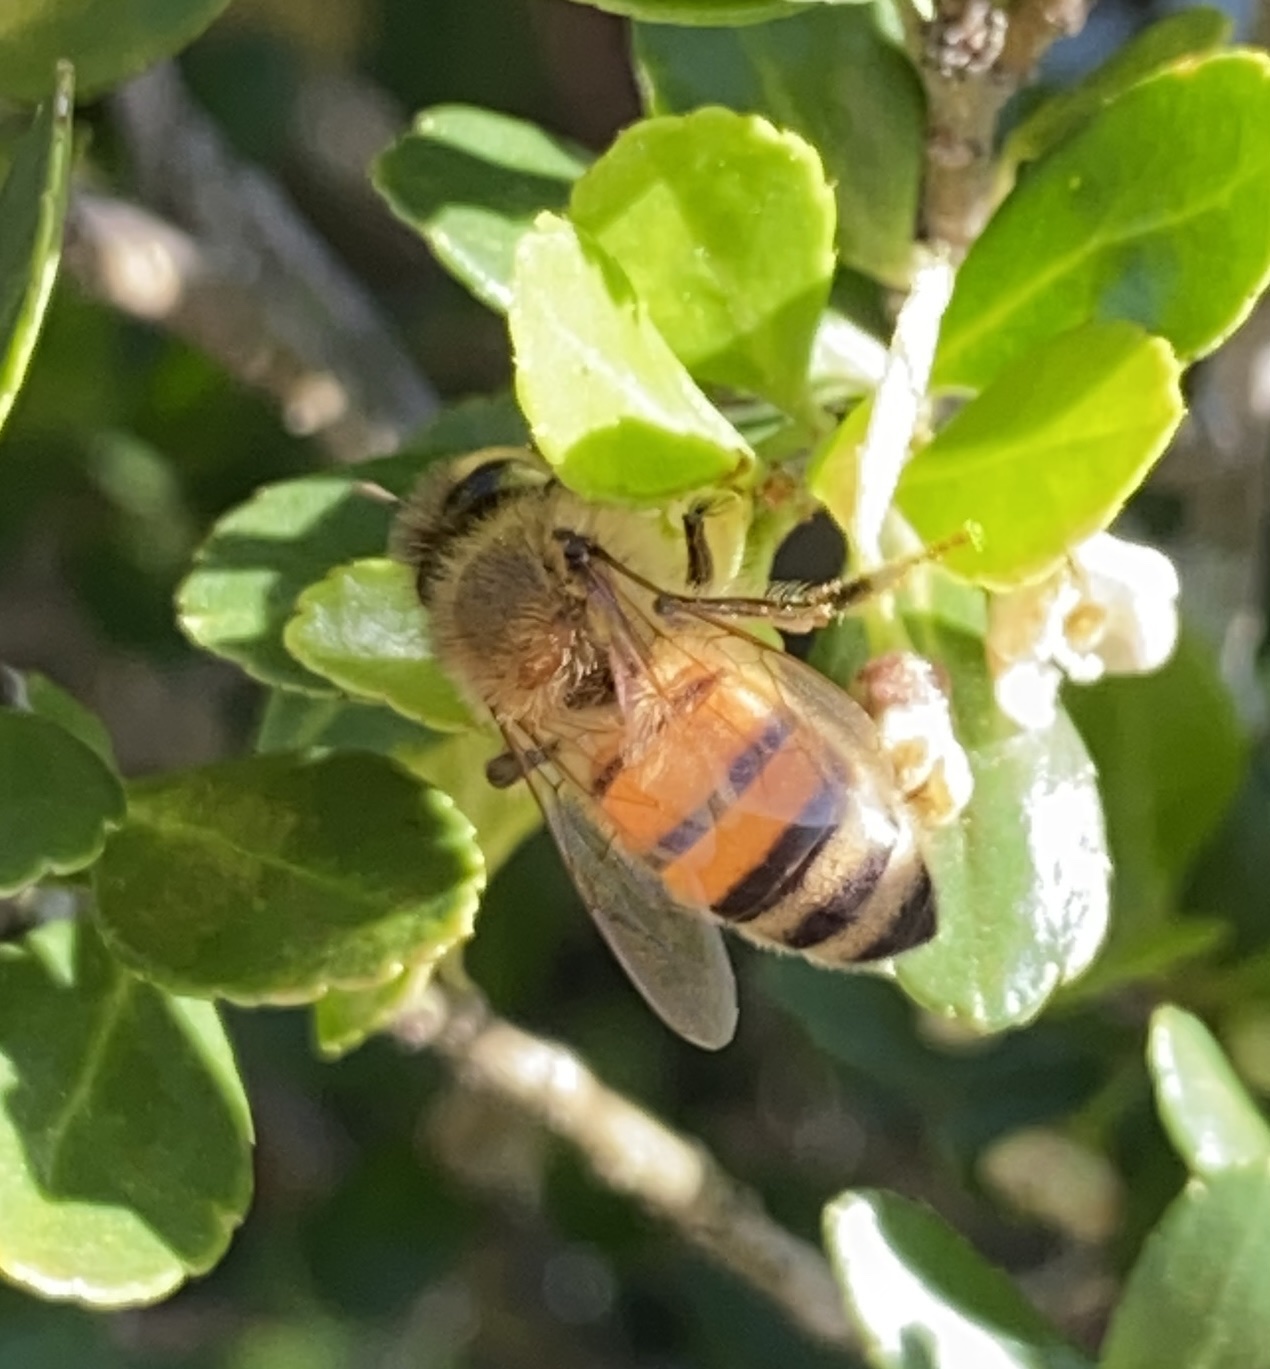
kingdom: Animalia
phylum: Arthropoda
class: Insecta
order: Hymenoptera
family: Apidae
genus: Apis
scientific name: Apis mellifera
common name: Honey bee
